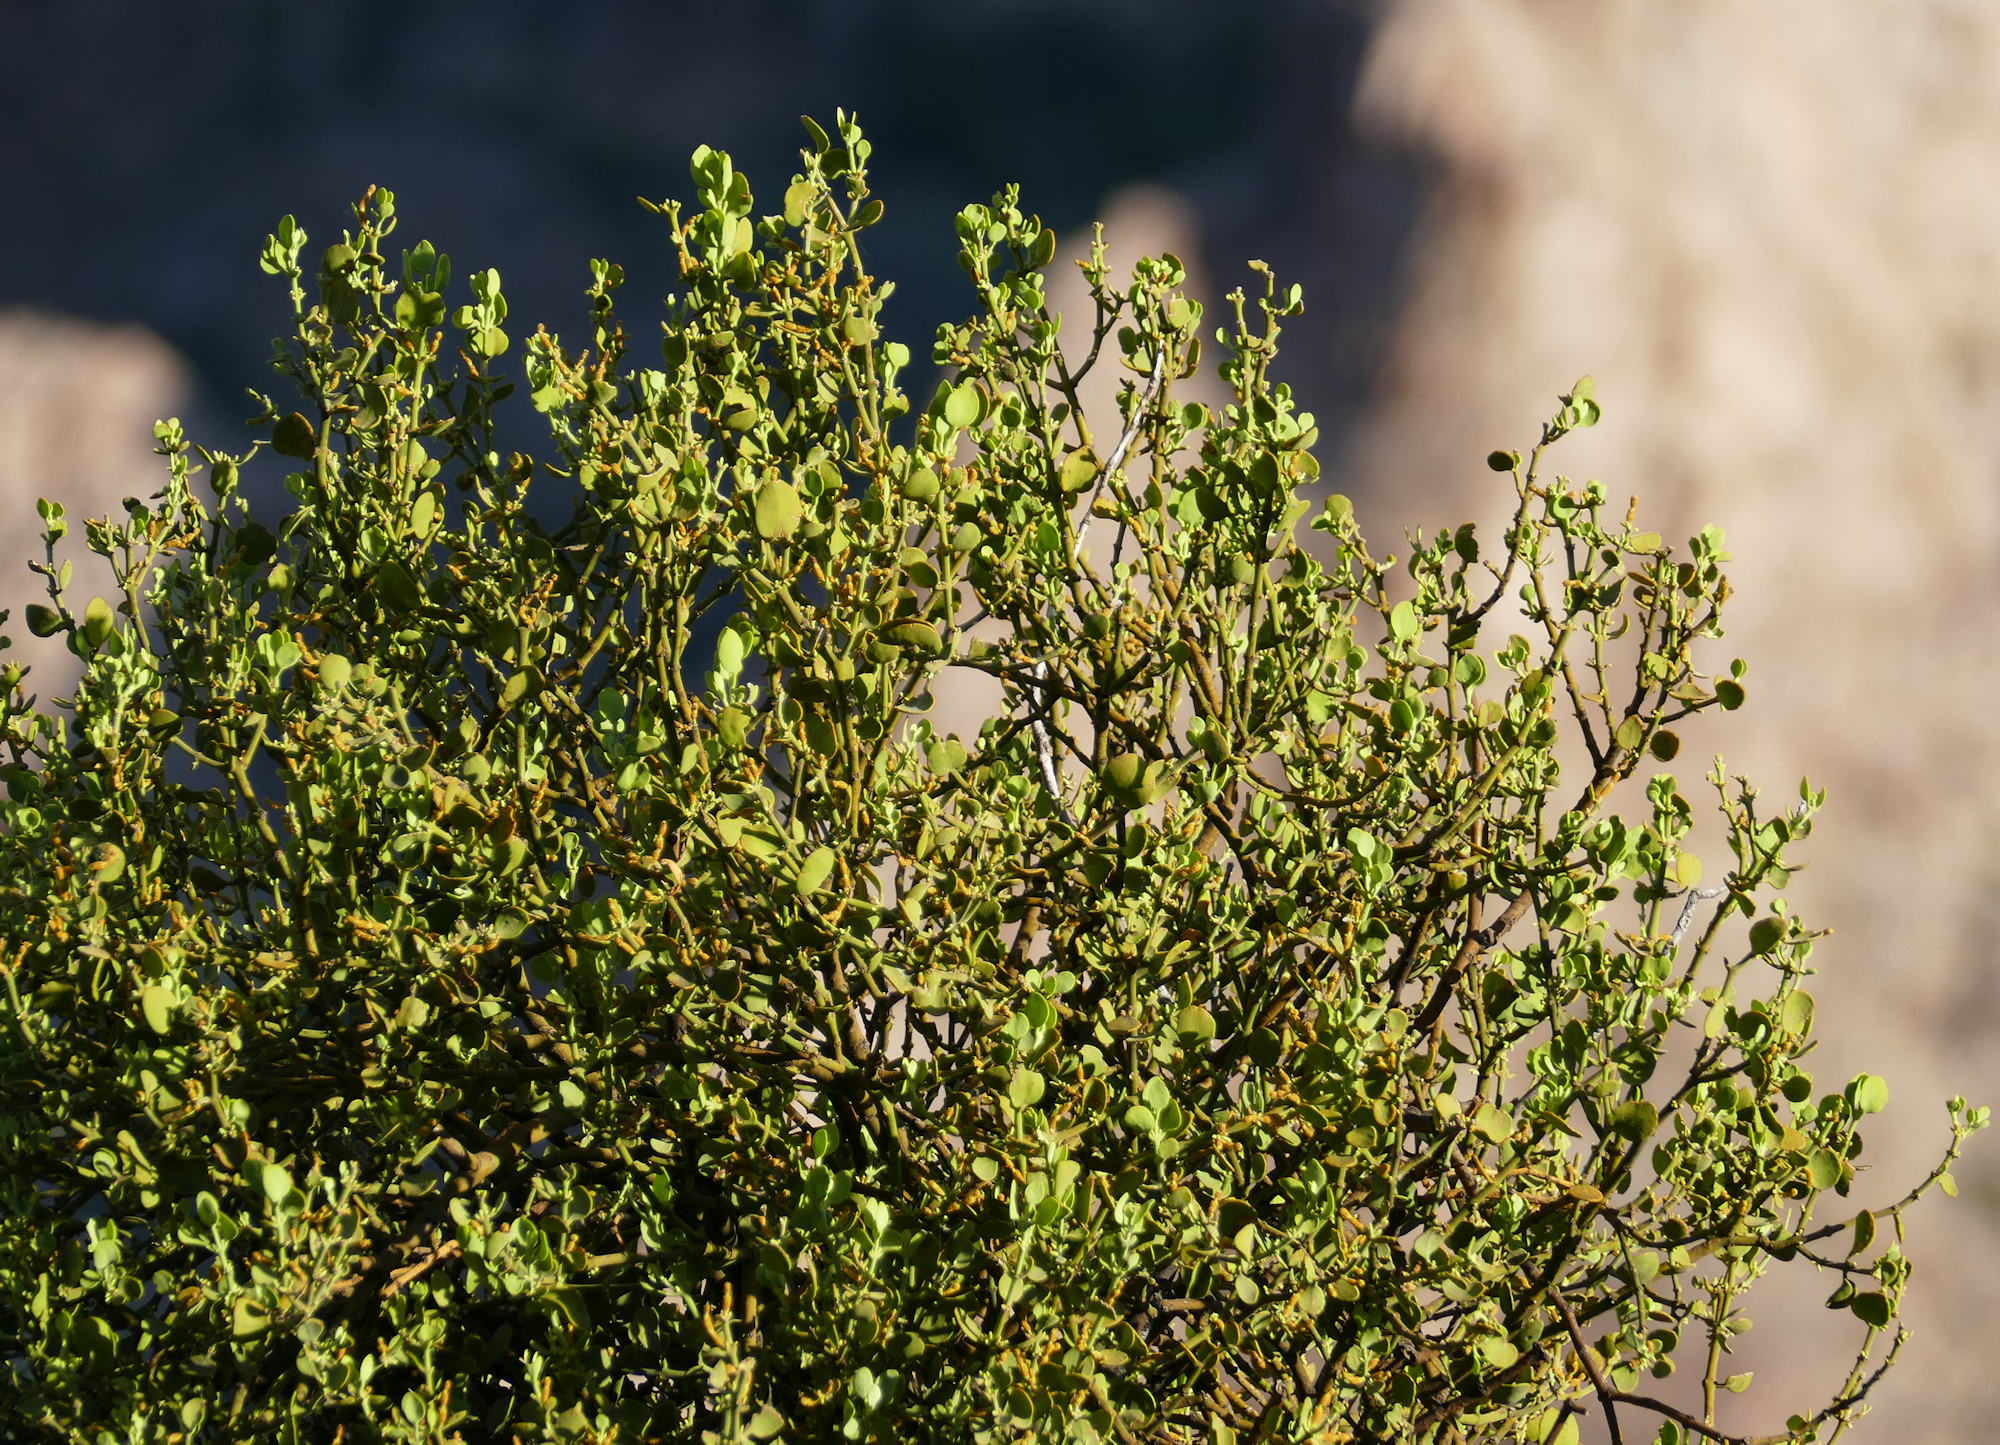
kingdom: Plantae
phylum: Tracheophyta
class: Magnoliopsida
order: Santalales
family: Viscaceae
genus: Phoradendron
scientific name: Phoradendron leucarpum
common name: Pacific mistletoe
